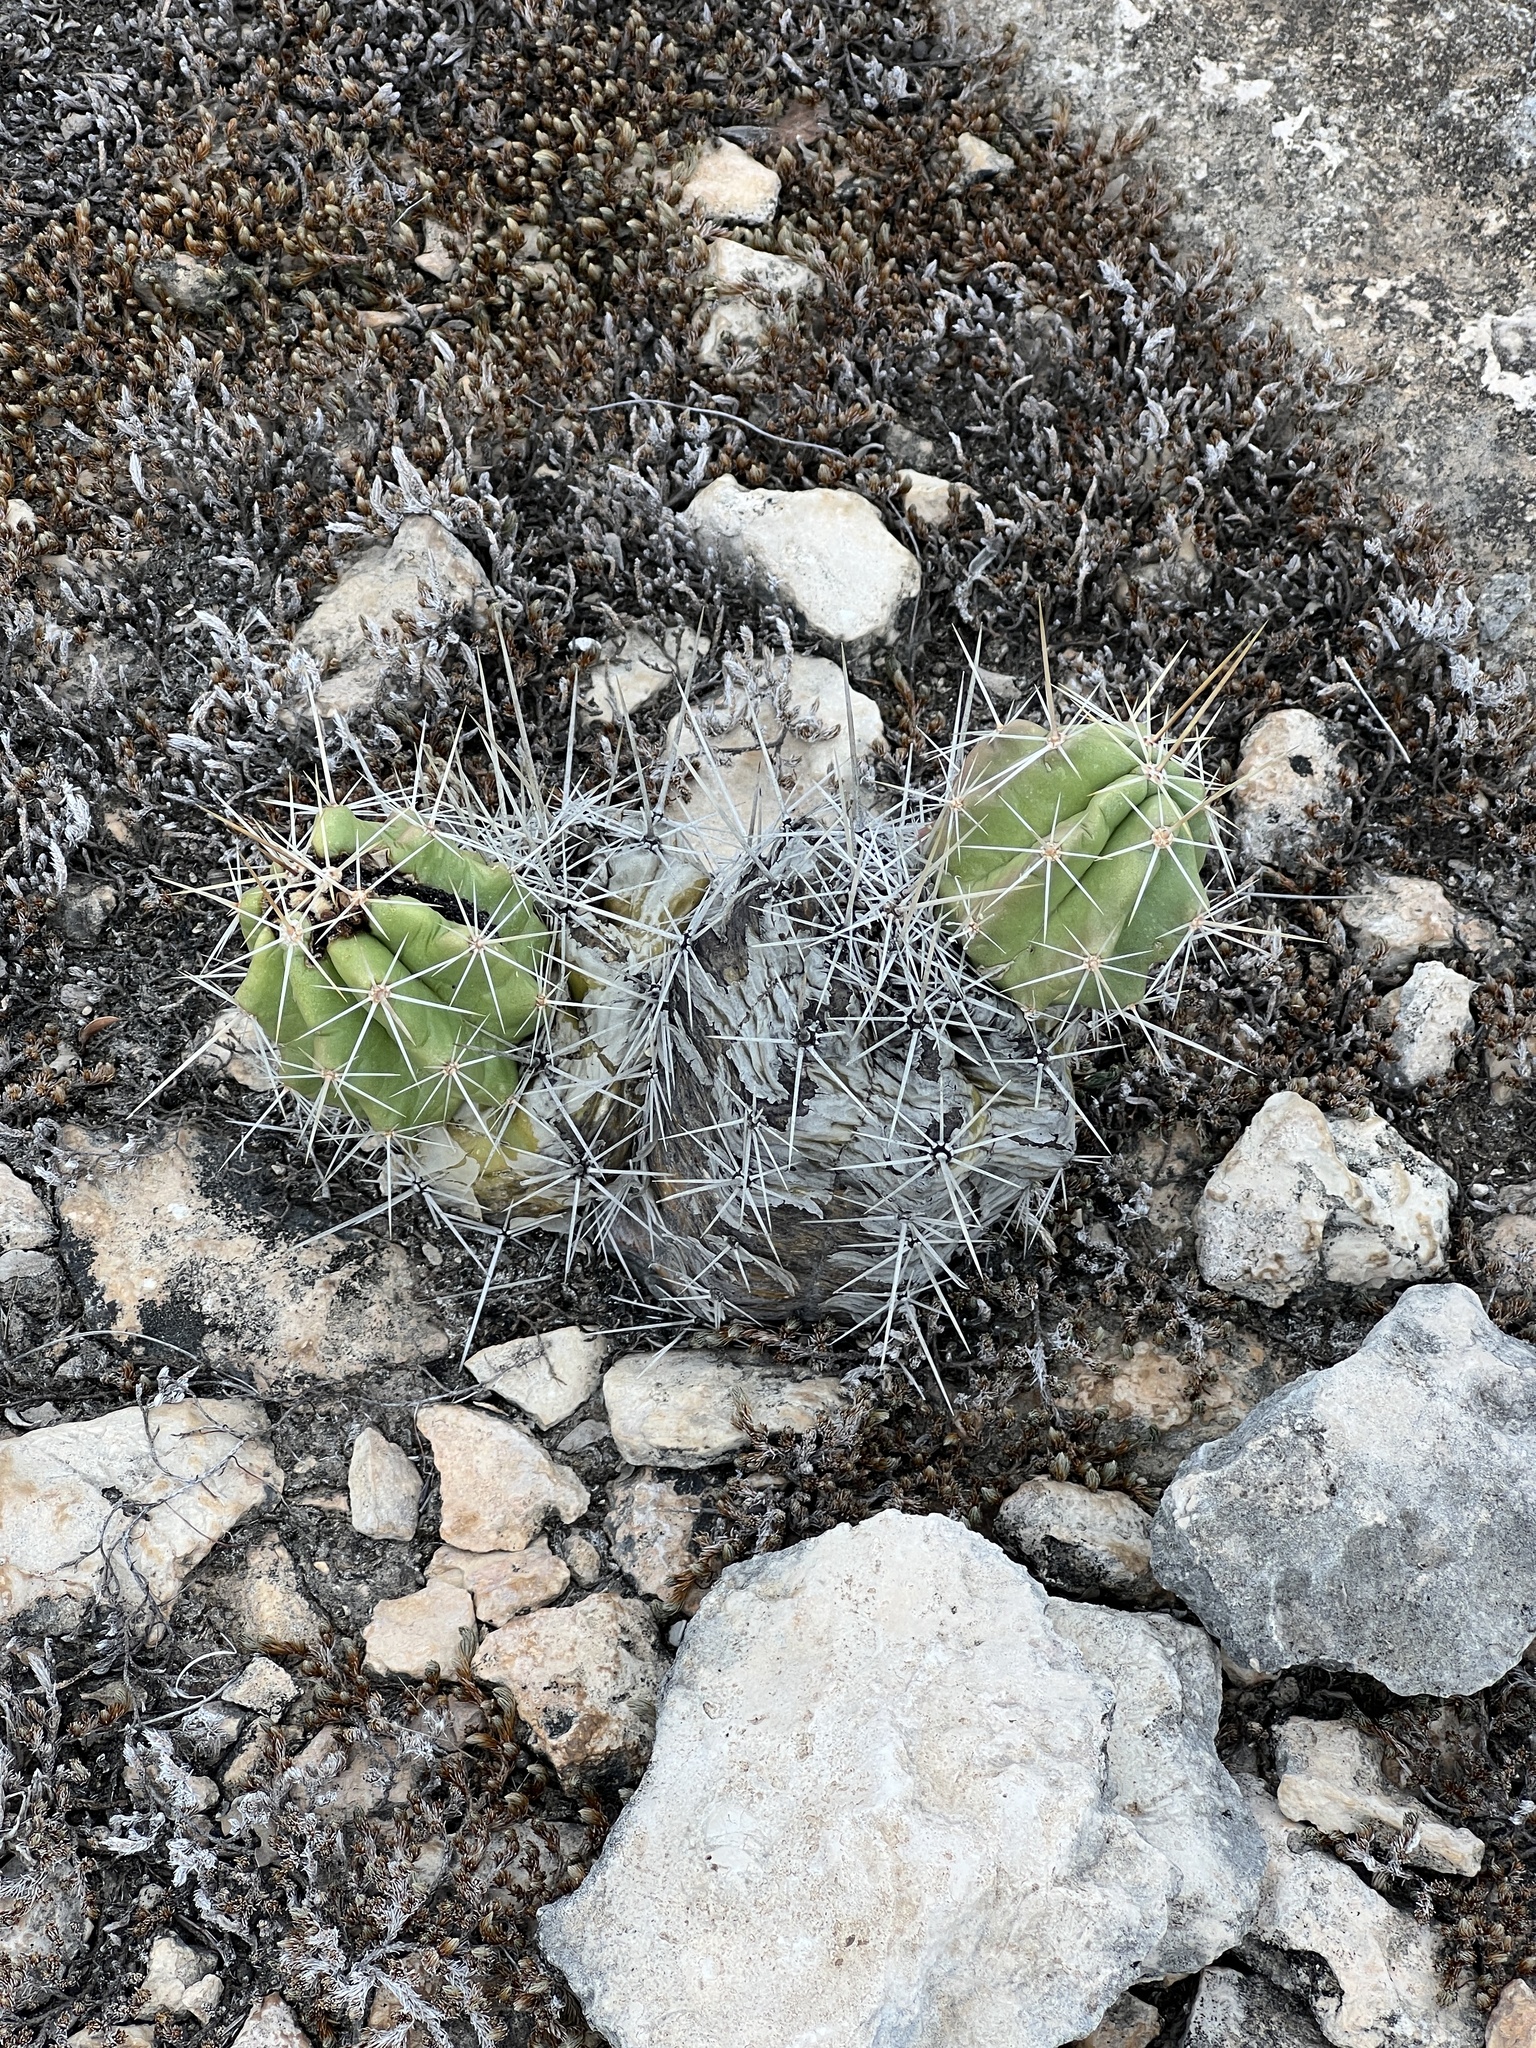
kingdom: Plantae
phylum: Tracheophyta
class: Magnoliopsida
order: Caryophyllales
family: Cactaceae
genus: Echinocereus
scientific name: Echinocereus enneacanthus
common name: Pitaya
